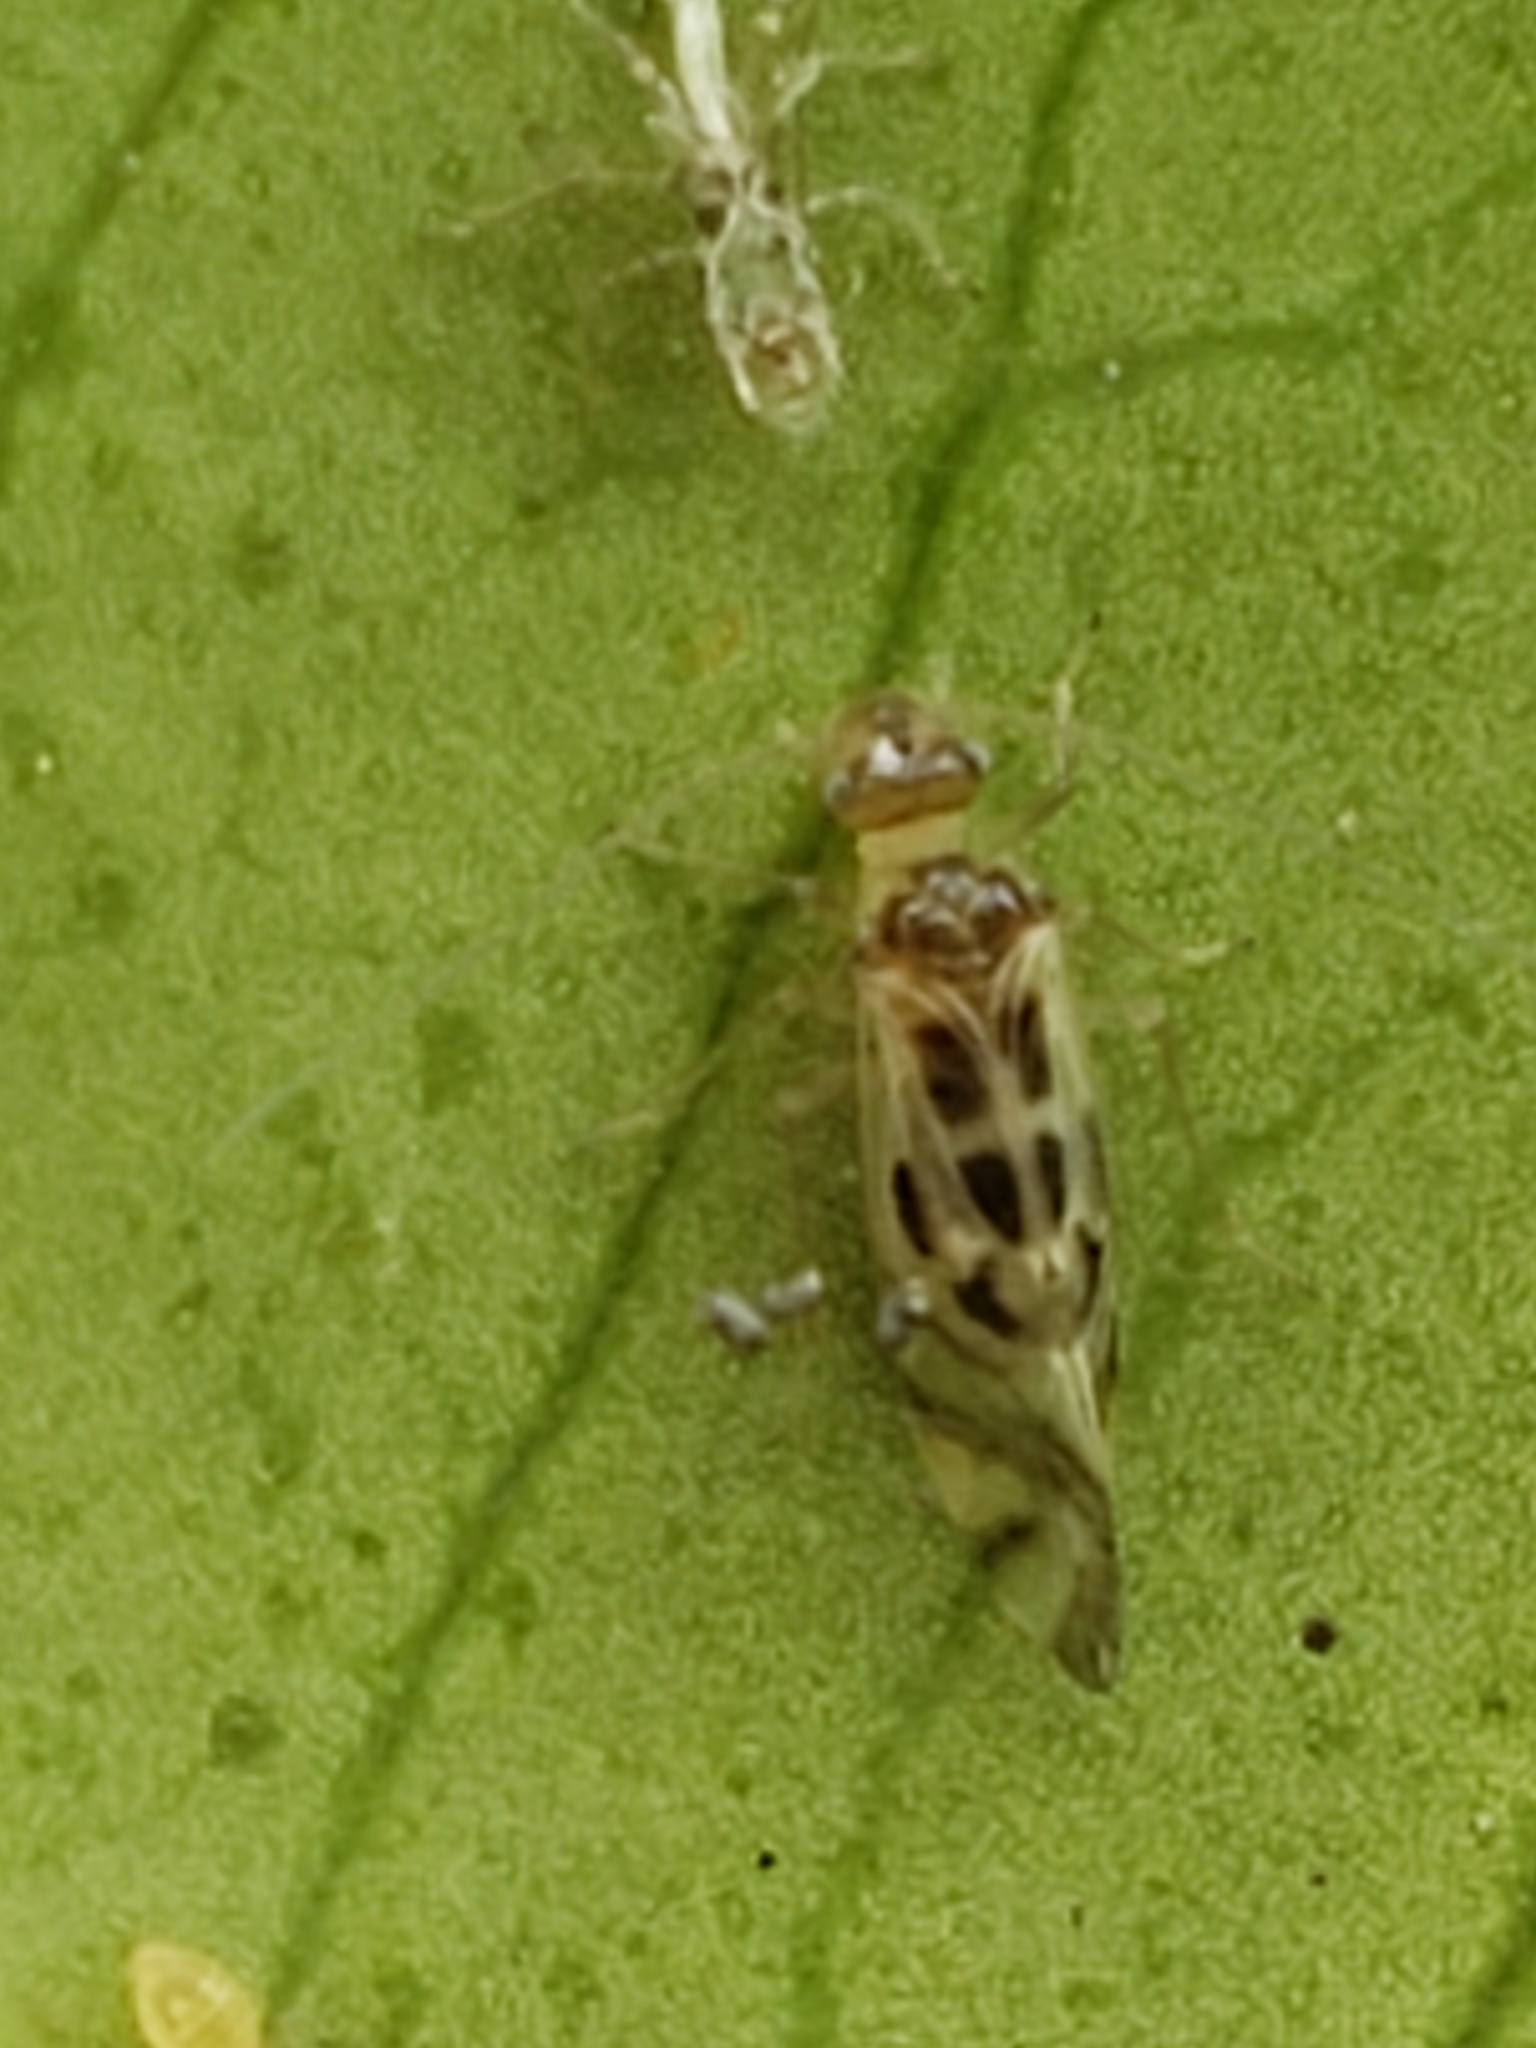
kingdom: Animalia
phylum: Arthropoda
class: Insecta
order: Psocodea
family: Stenopsocidae
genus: Graphopsocus
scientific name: Graphopsocus cruciatus
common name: Lizard bark louse
